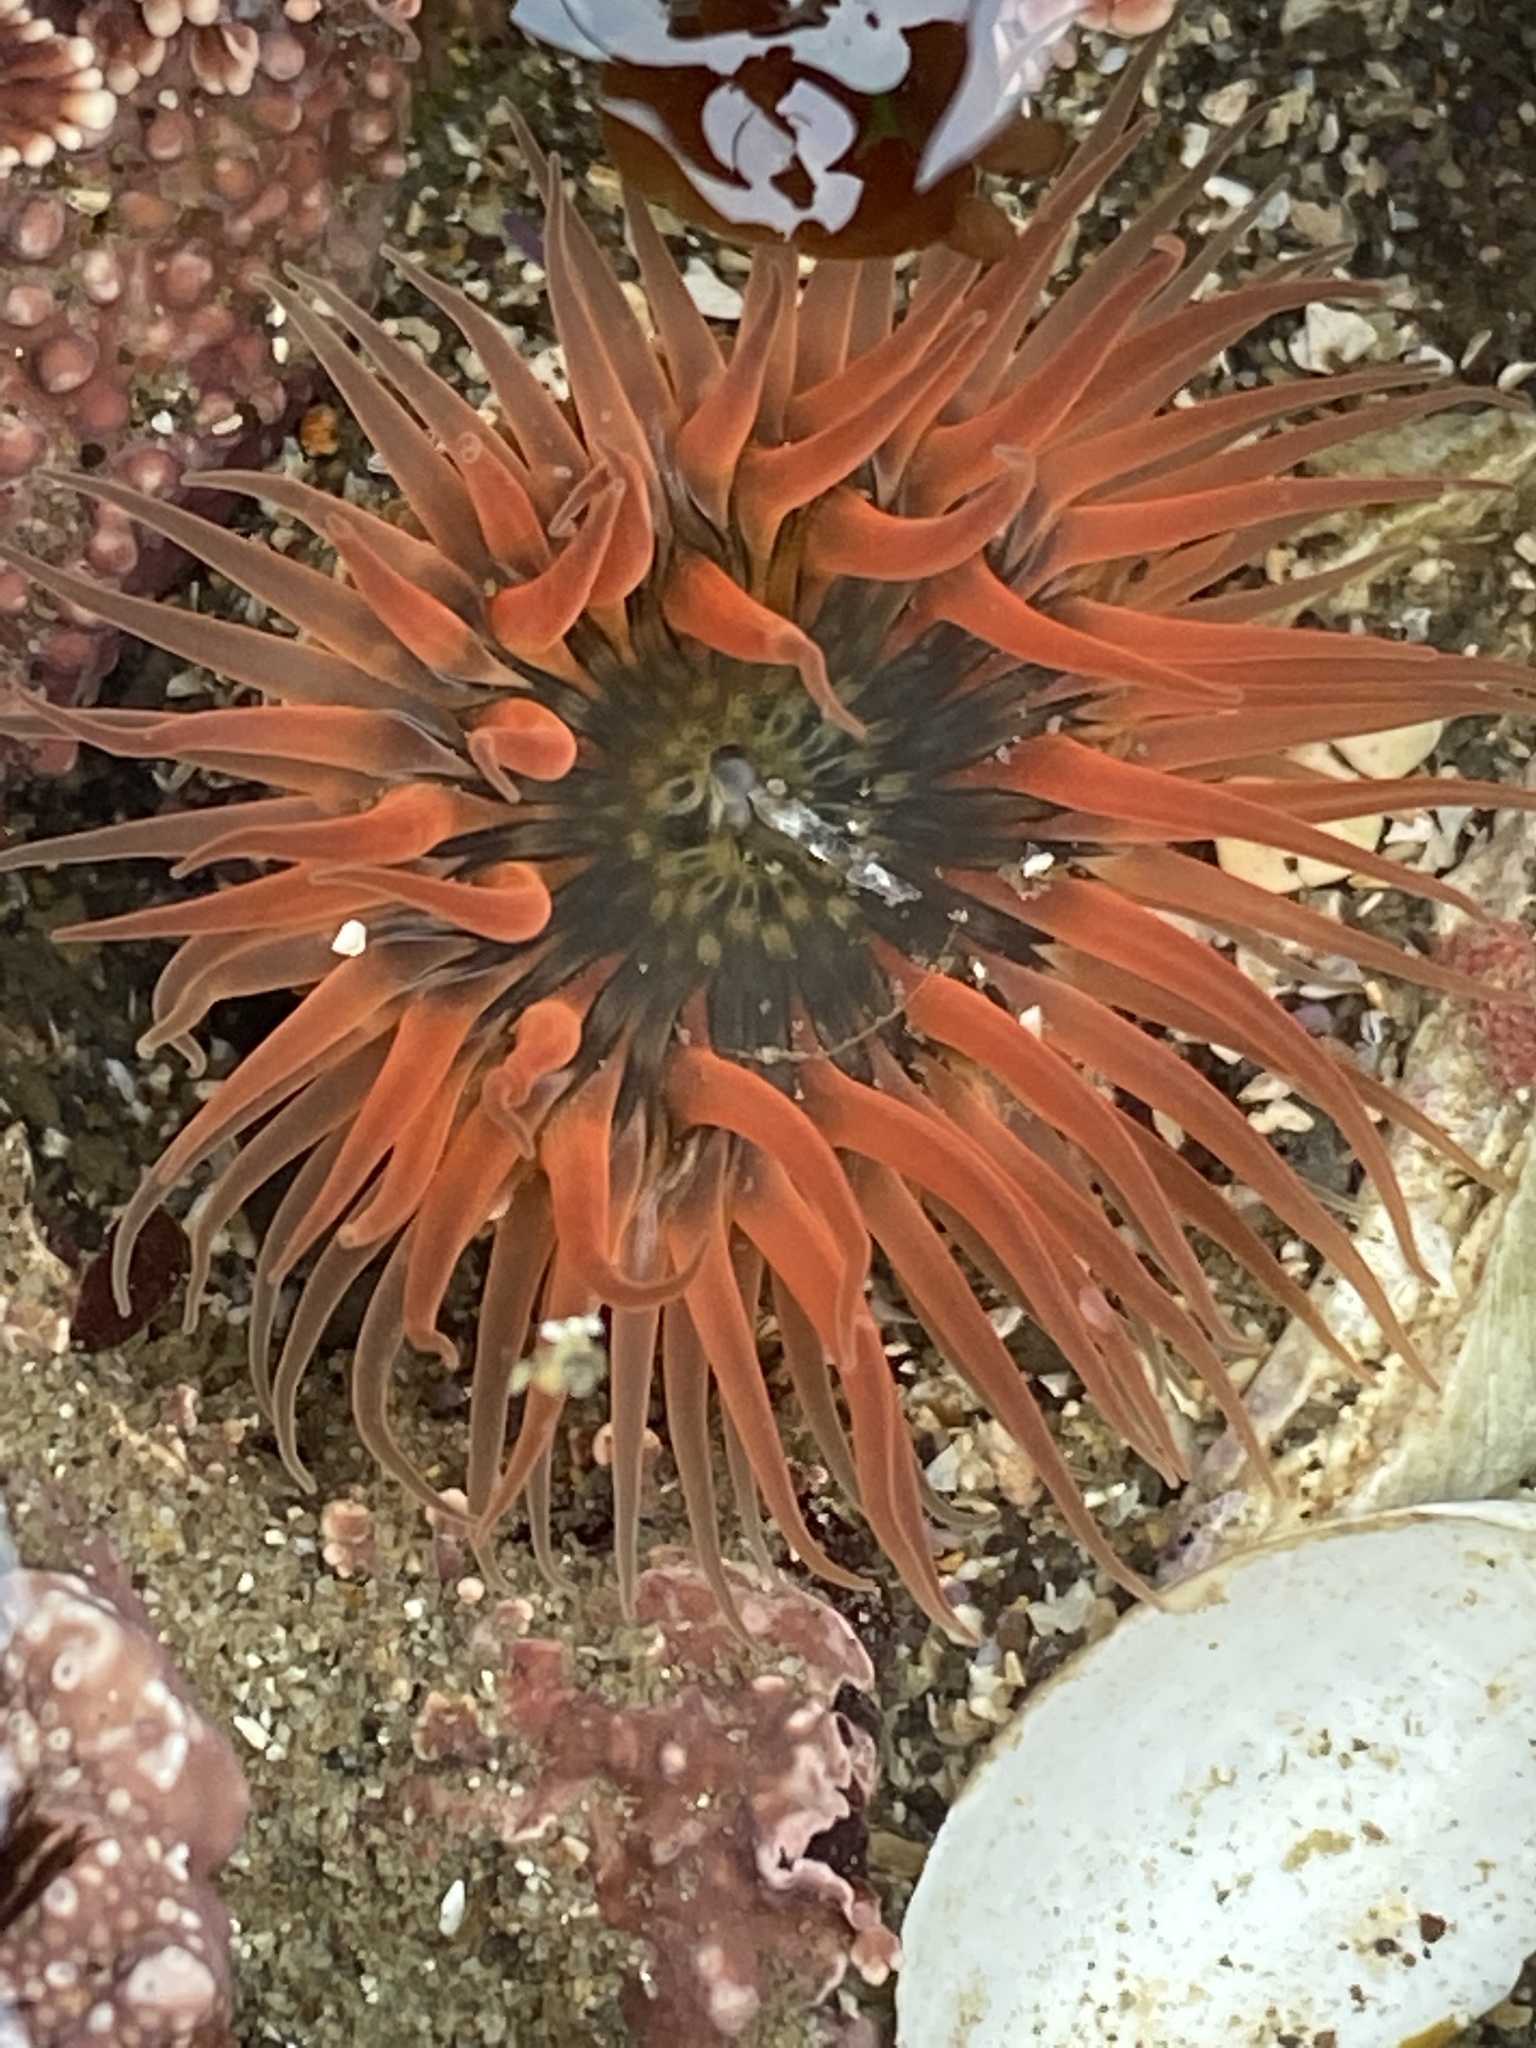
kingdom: Animalia
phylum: Cnidaria
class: Anthozoa
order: Actiniaria
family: Actiniidae
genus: Anthopleura
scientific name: Anthopleura artemisia
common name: Buried sea anemone
